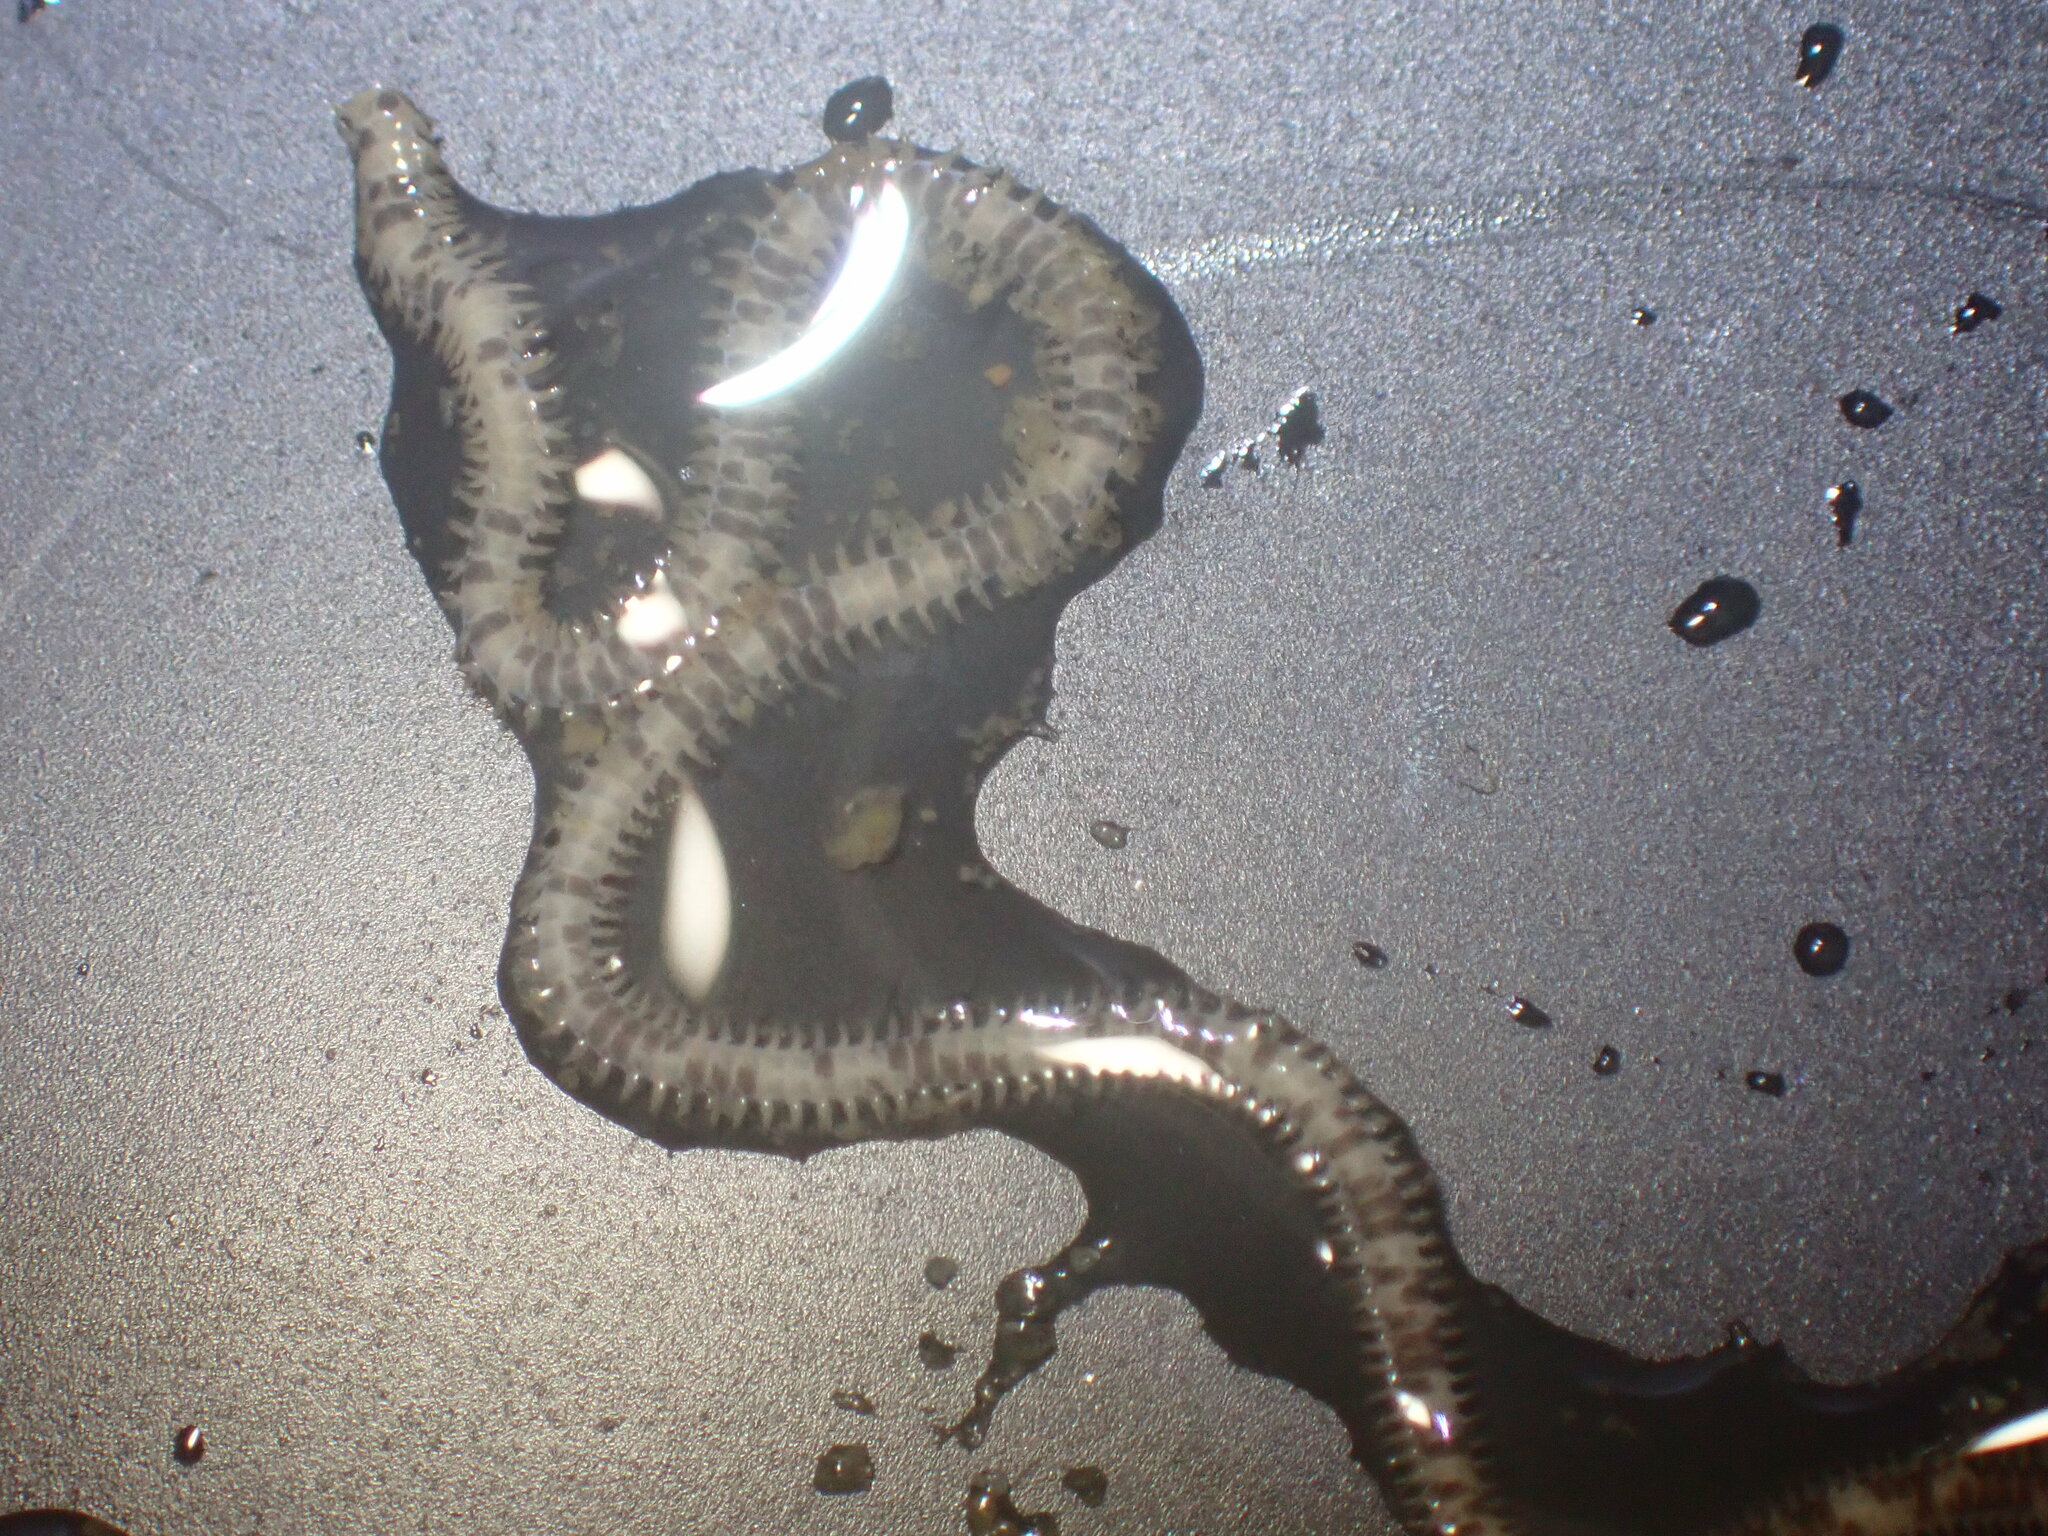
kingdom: Animalia
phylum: Echinodermata
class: Ophiuroidea
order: Amphilepidida
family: Amphiuridae
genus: Amphiodia
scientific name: Amphiodia occidentalis
